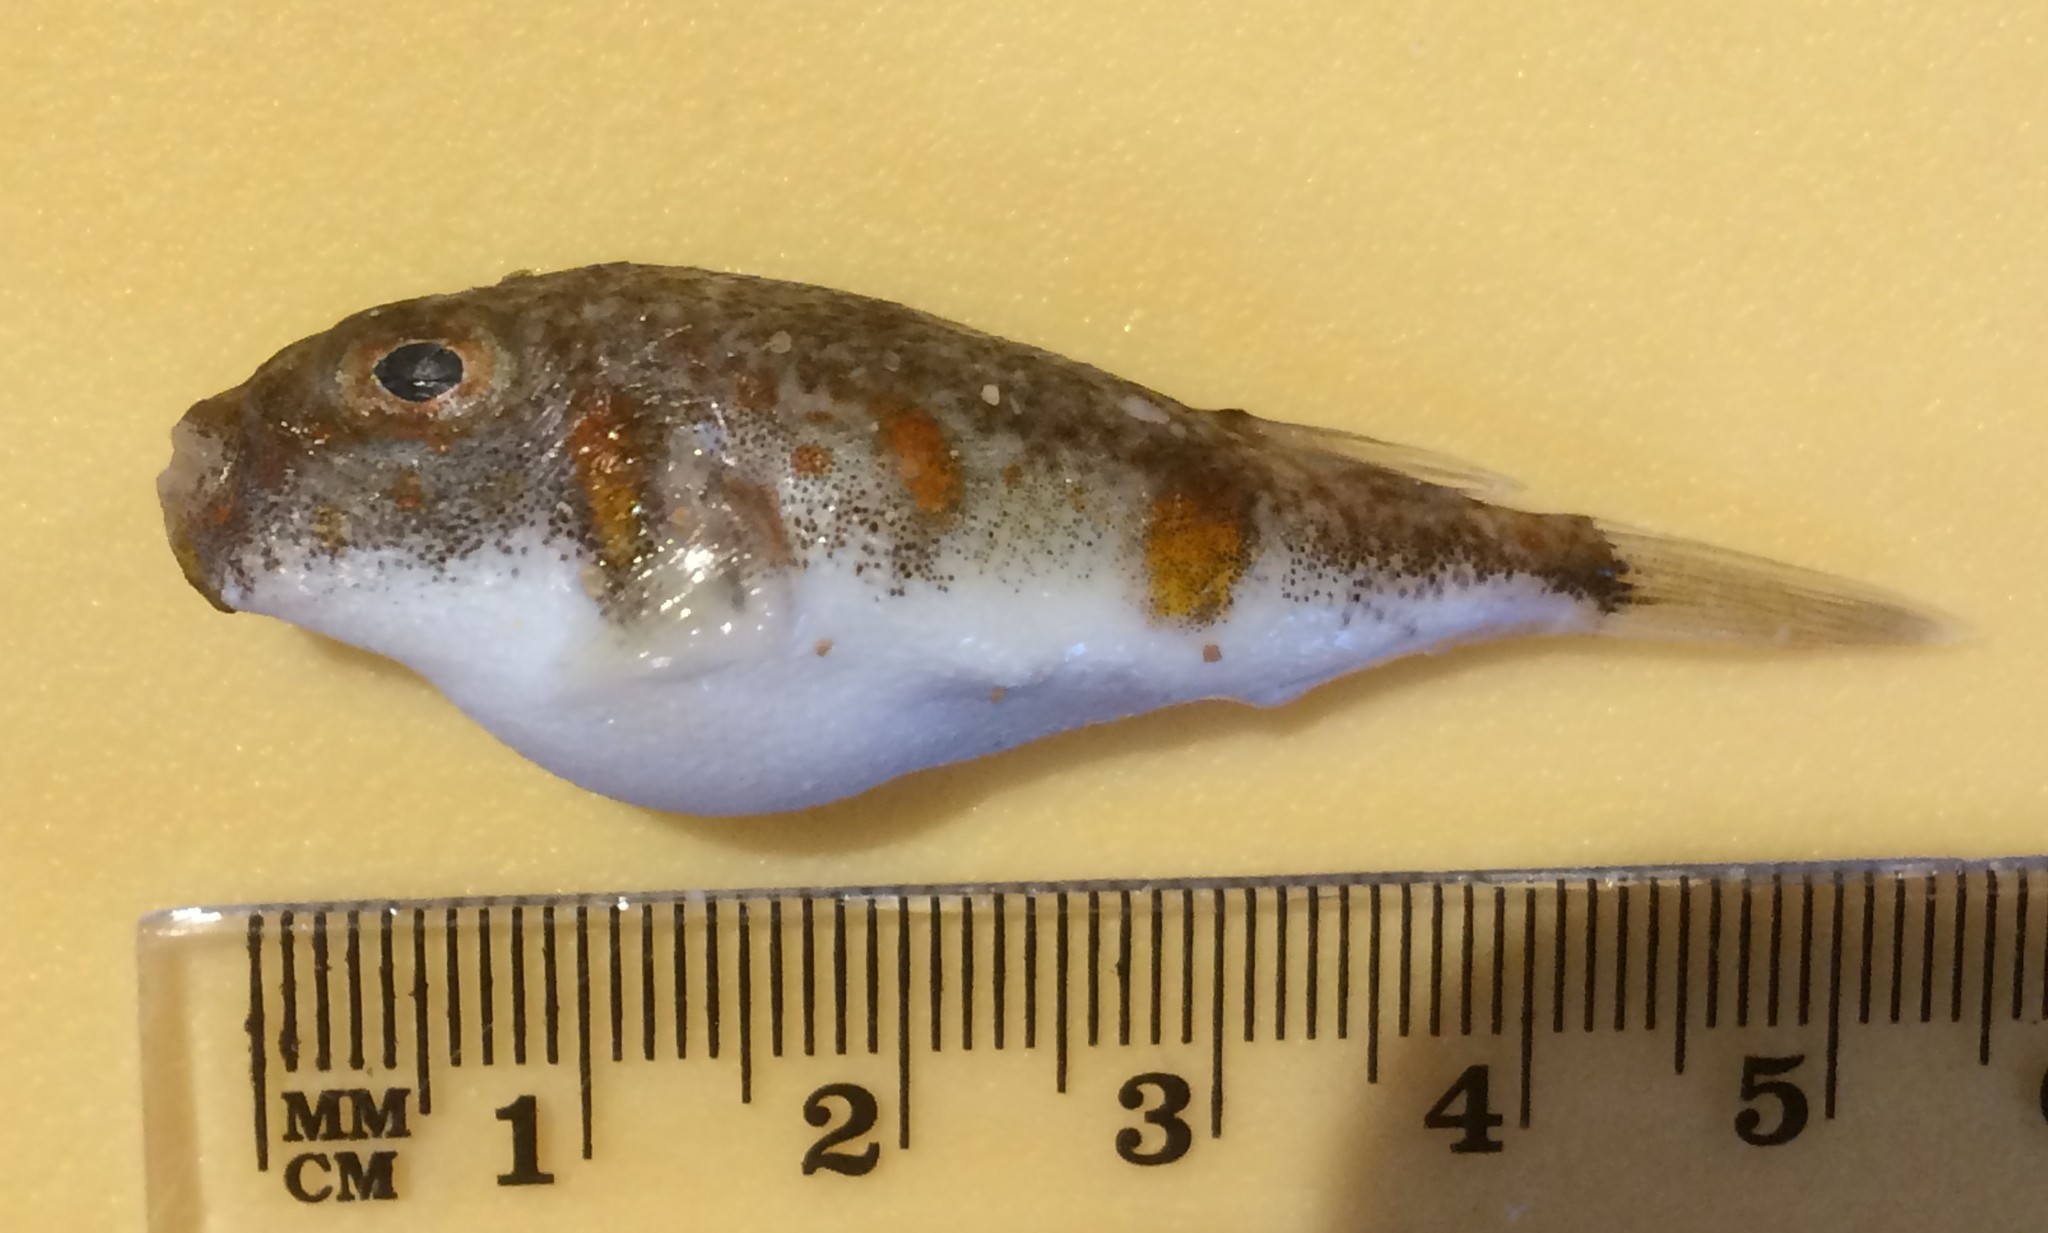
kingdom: Animalia
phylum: Chordata
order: Tetraodontiformes
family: Tetraodontidae
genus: Polyspina
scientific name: Polyspina piosae
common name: Orange-barred pufferfish
